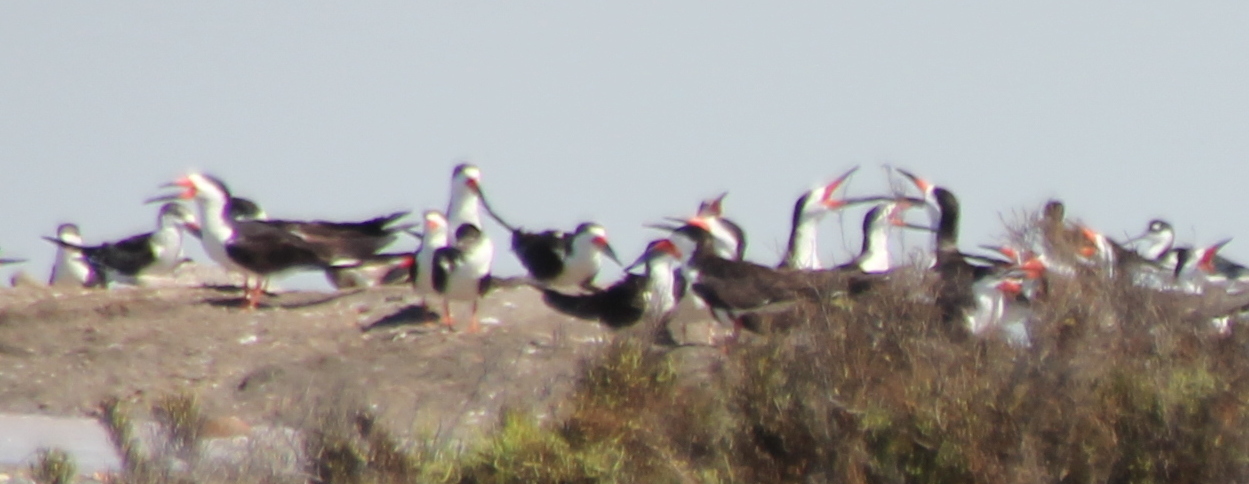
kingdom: Animalia
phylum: Chordata
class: Aves
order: Charadriiformes
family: Laridae
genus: Rynchops
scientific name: Rynchops niger
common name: Black skimmer
